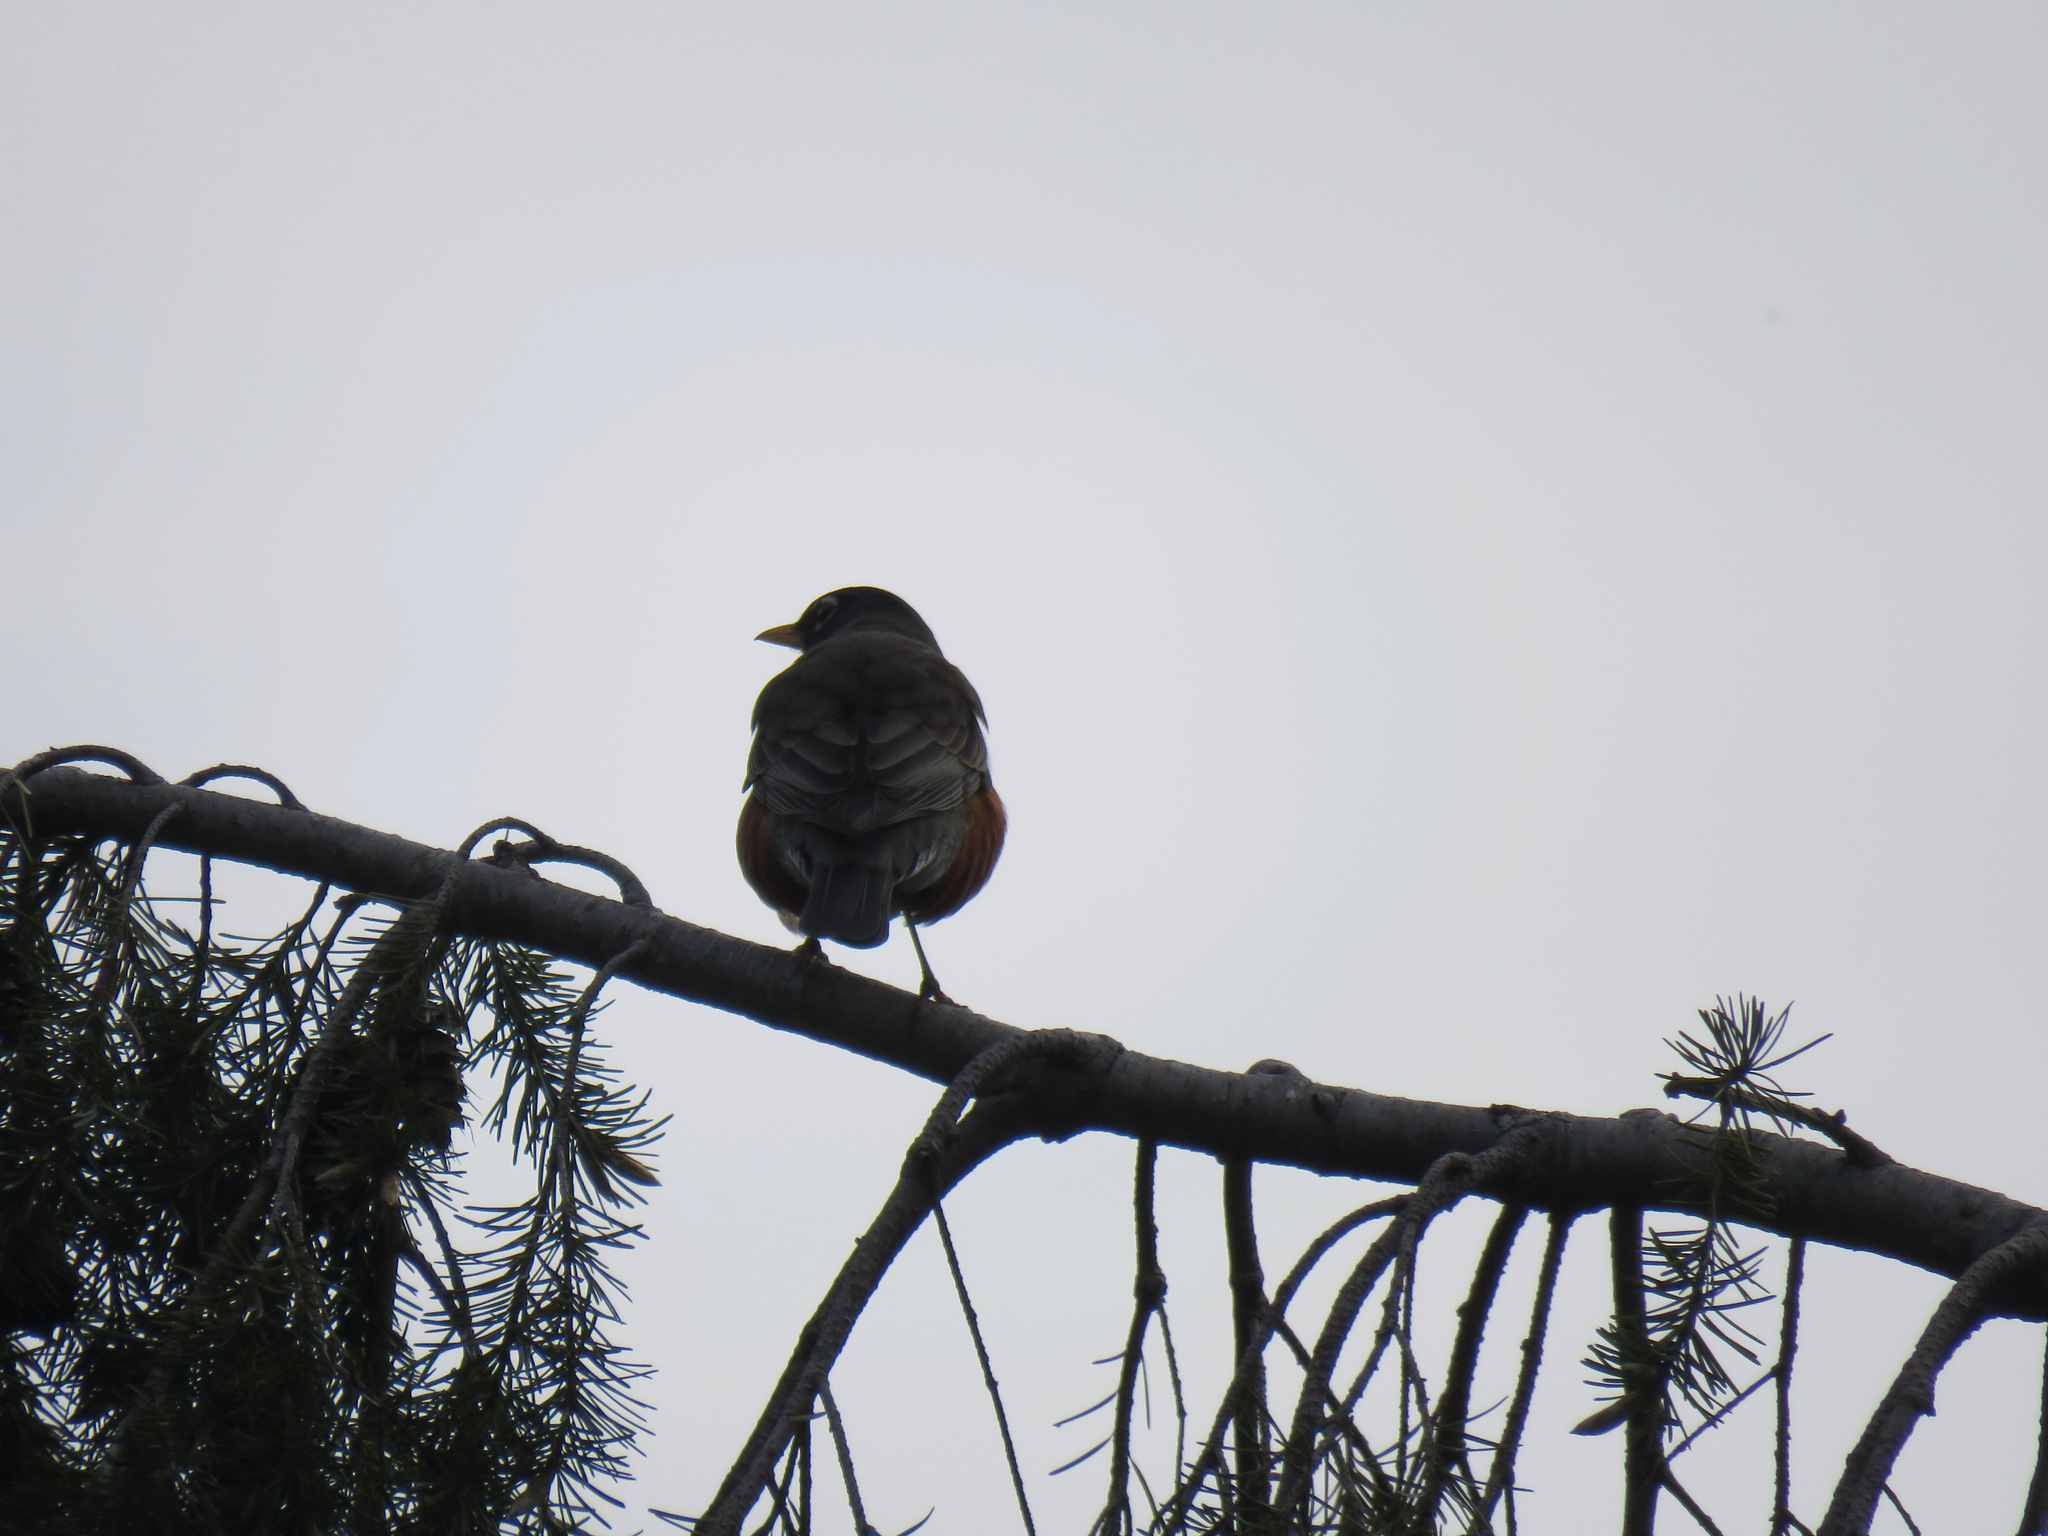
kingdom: Animalia
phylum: Chordata
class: Aves
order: Passeriformes
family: Turdidae
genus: Turdus
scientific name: Turdus migratorius
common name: American robin
